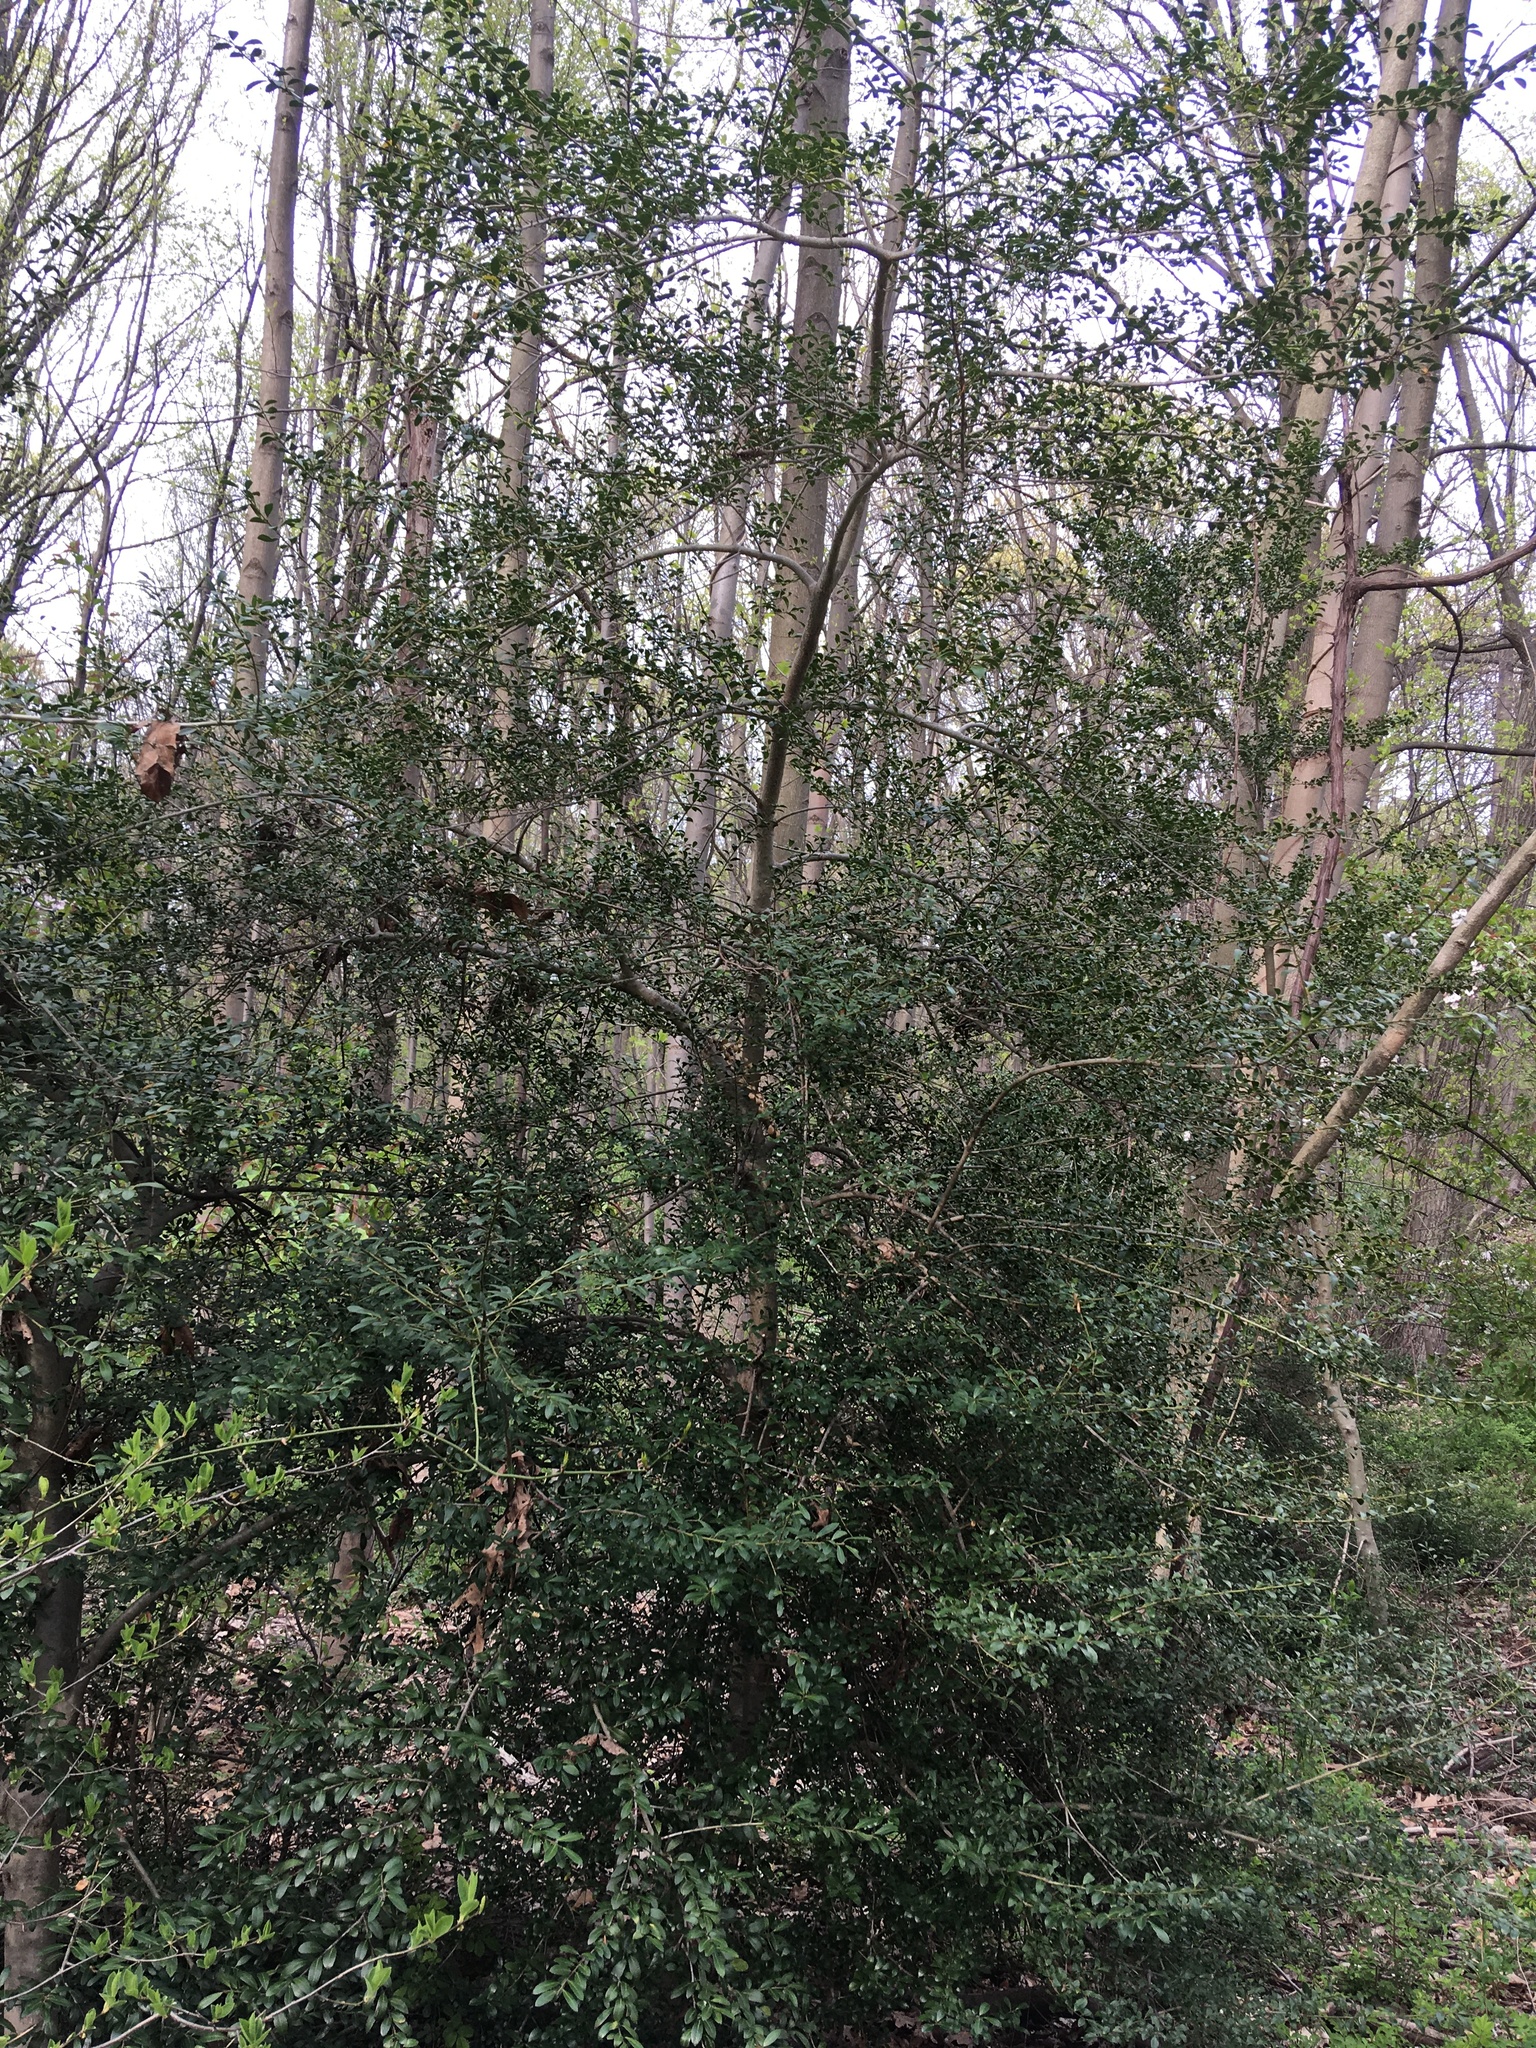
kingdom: Plantae
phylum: Tracheophyta
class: Magnoliopsida
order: Aquifoliales
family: Aquifoliaceae
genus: Ilex
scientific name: Ilex crenata
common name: Japanese holly
